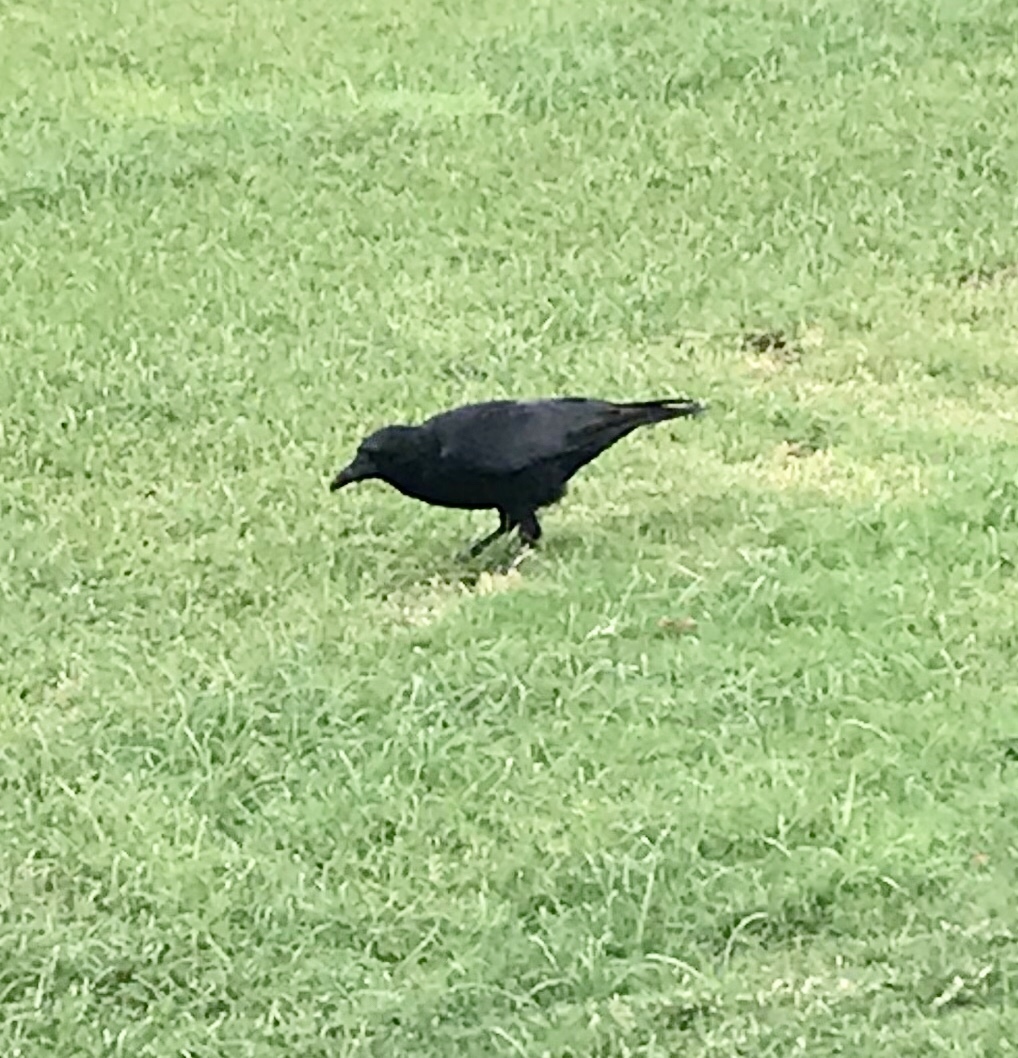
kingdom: Animalia
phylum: Chordata
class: Aves
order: Passeriformes
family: Corvidae
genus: Corvus
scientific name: Corvus brachyrhynchos
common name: American crow
